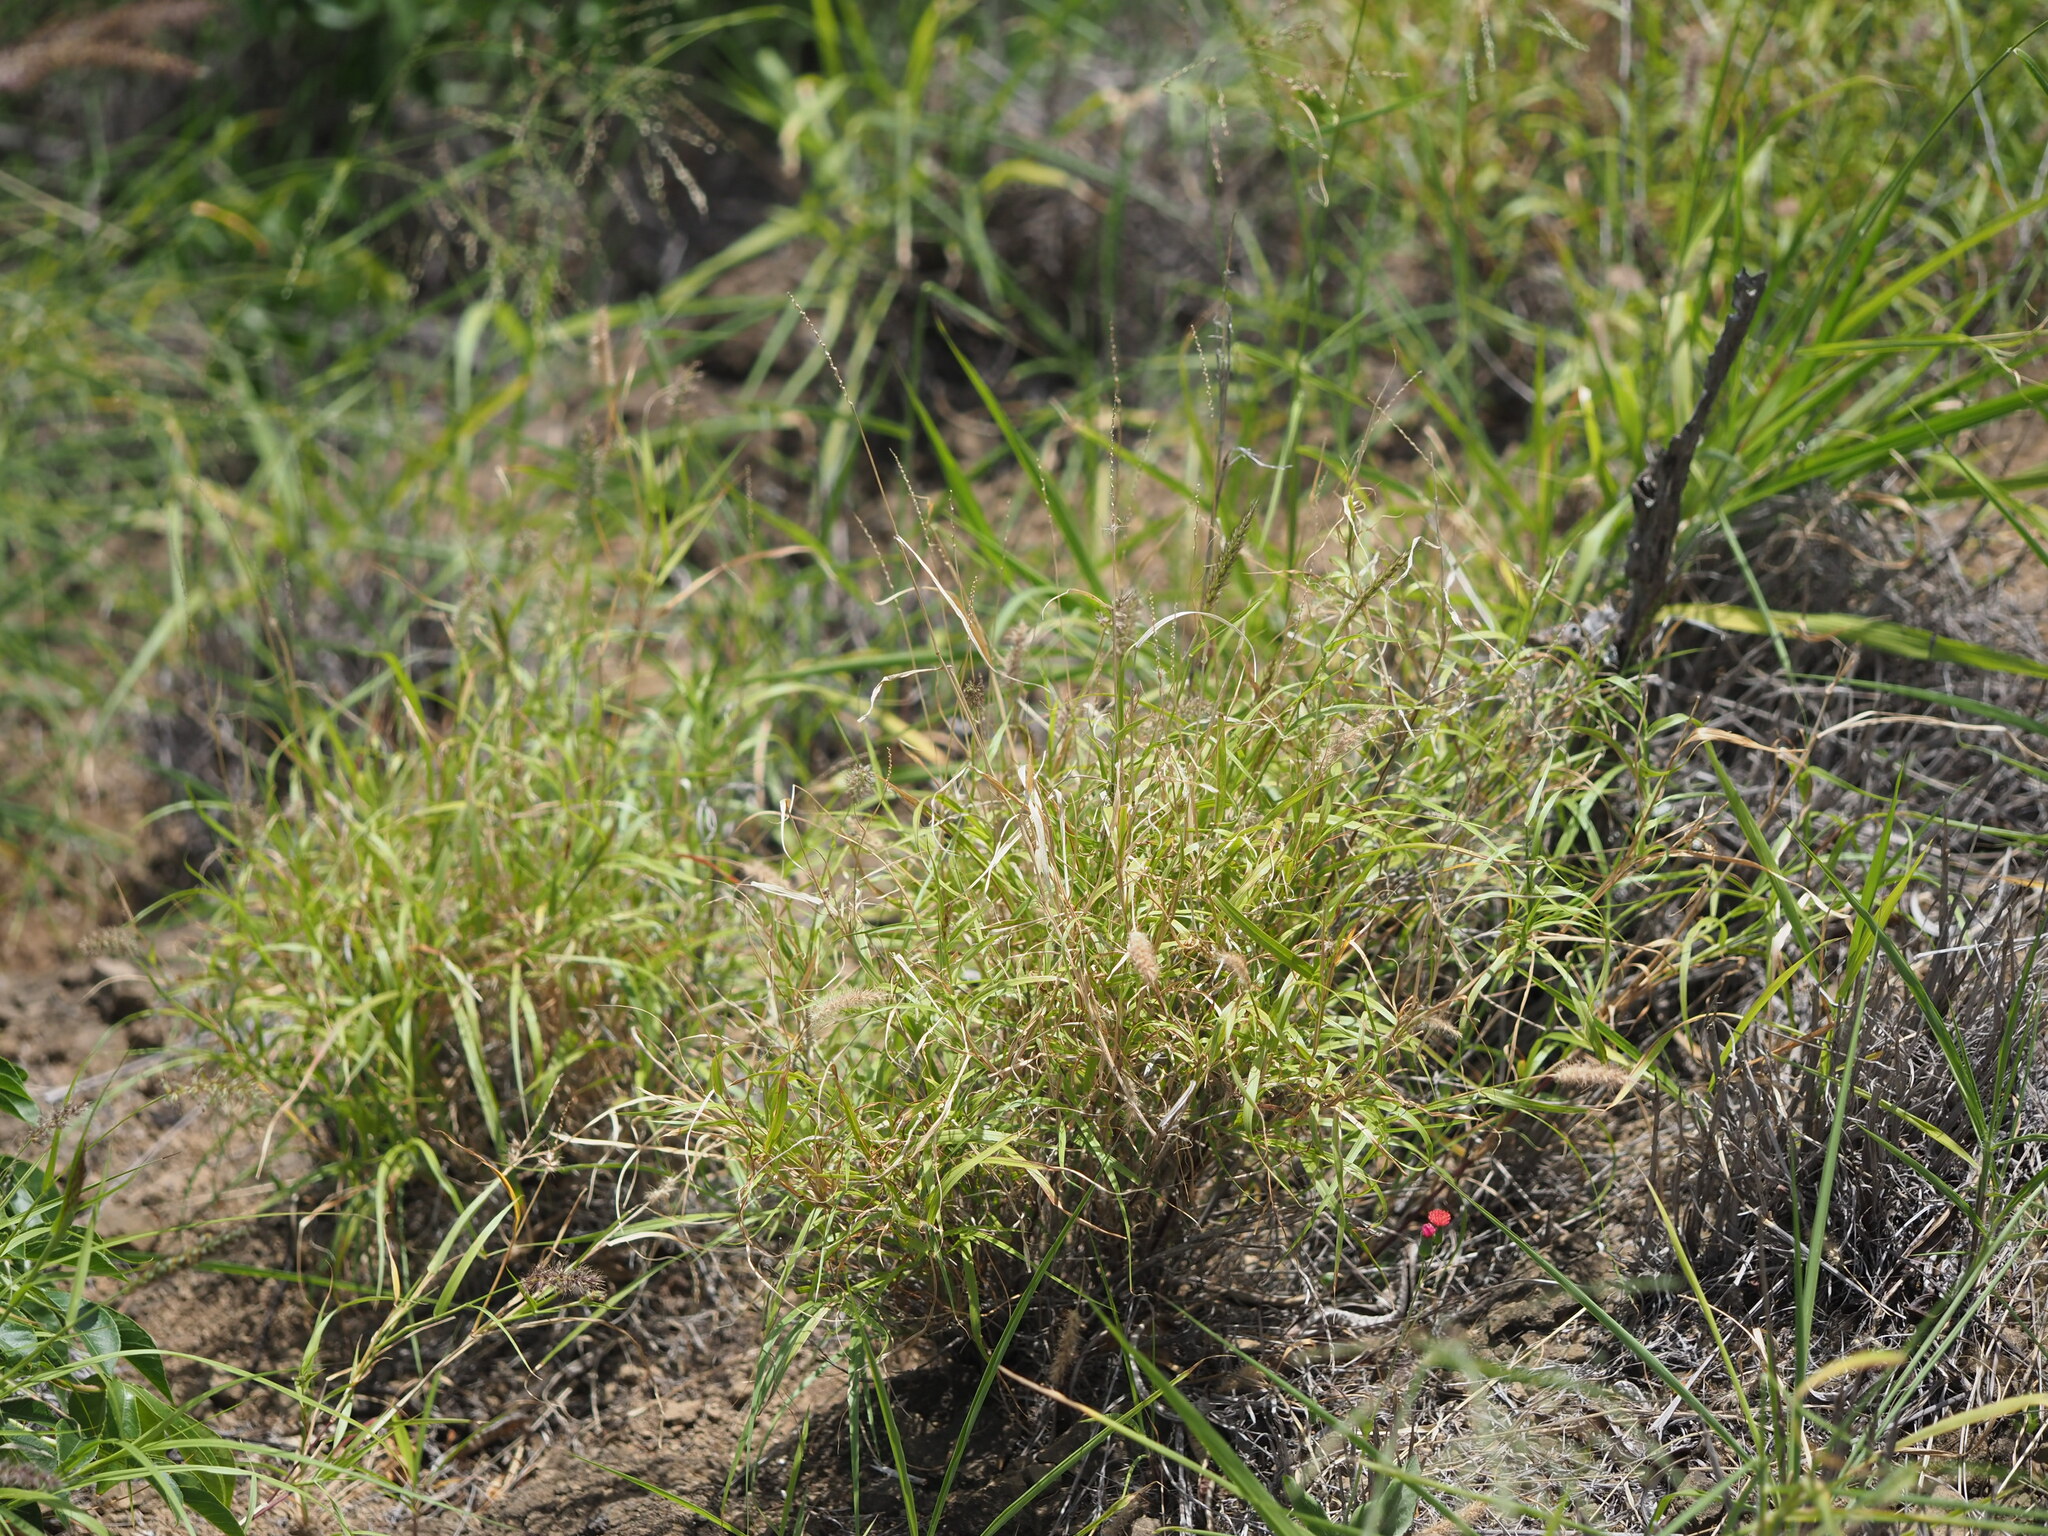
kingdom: Plantae
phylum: Tracheophyta
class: Liliopsida
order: Poales
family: Poaceae
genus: Cenchrus
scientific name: Cenchrus ciliaris
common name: Buffelgrass
